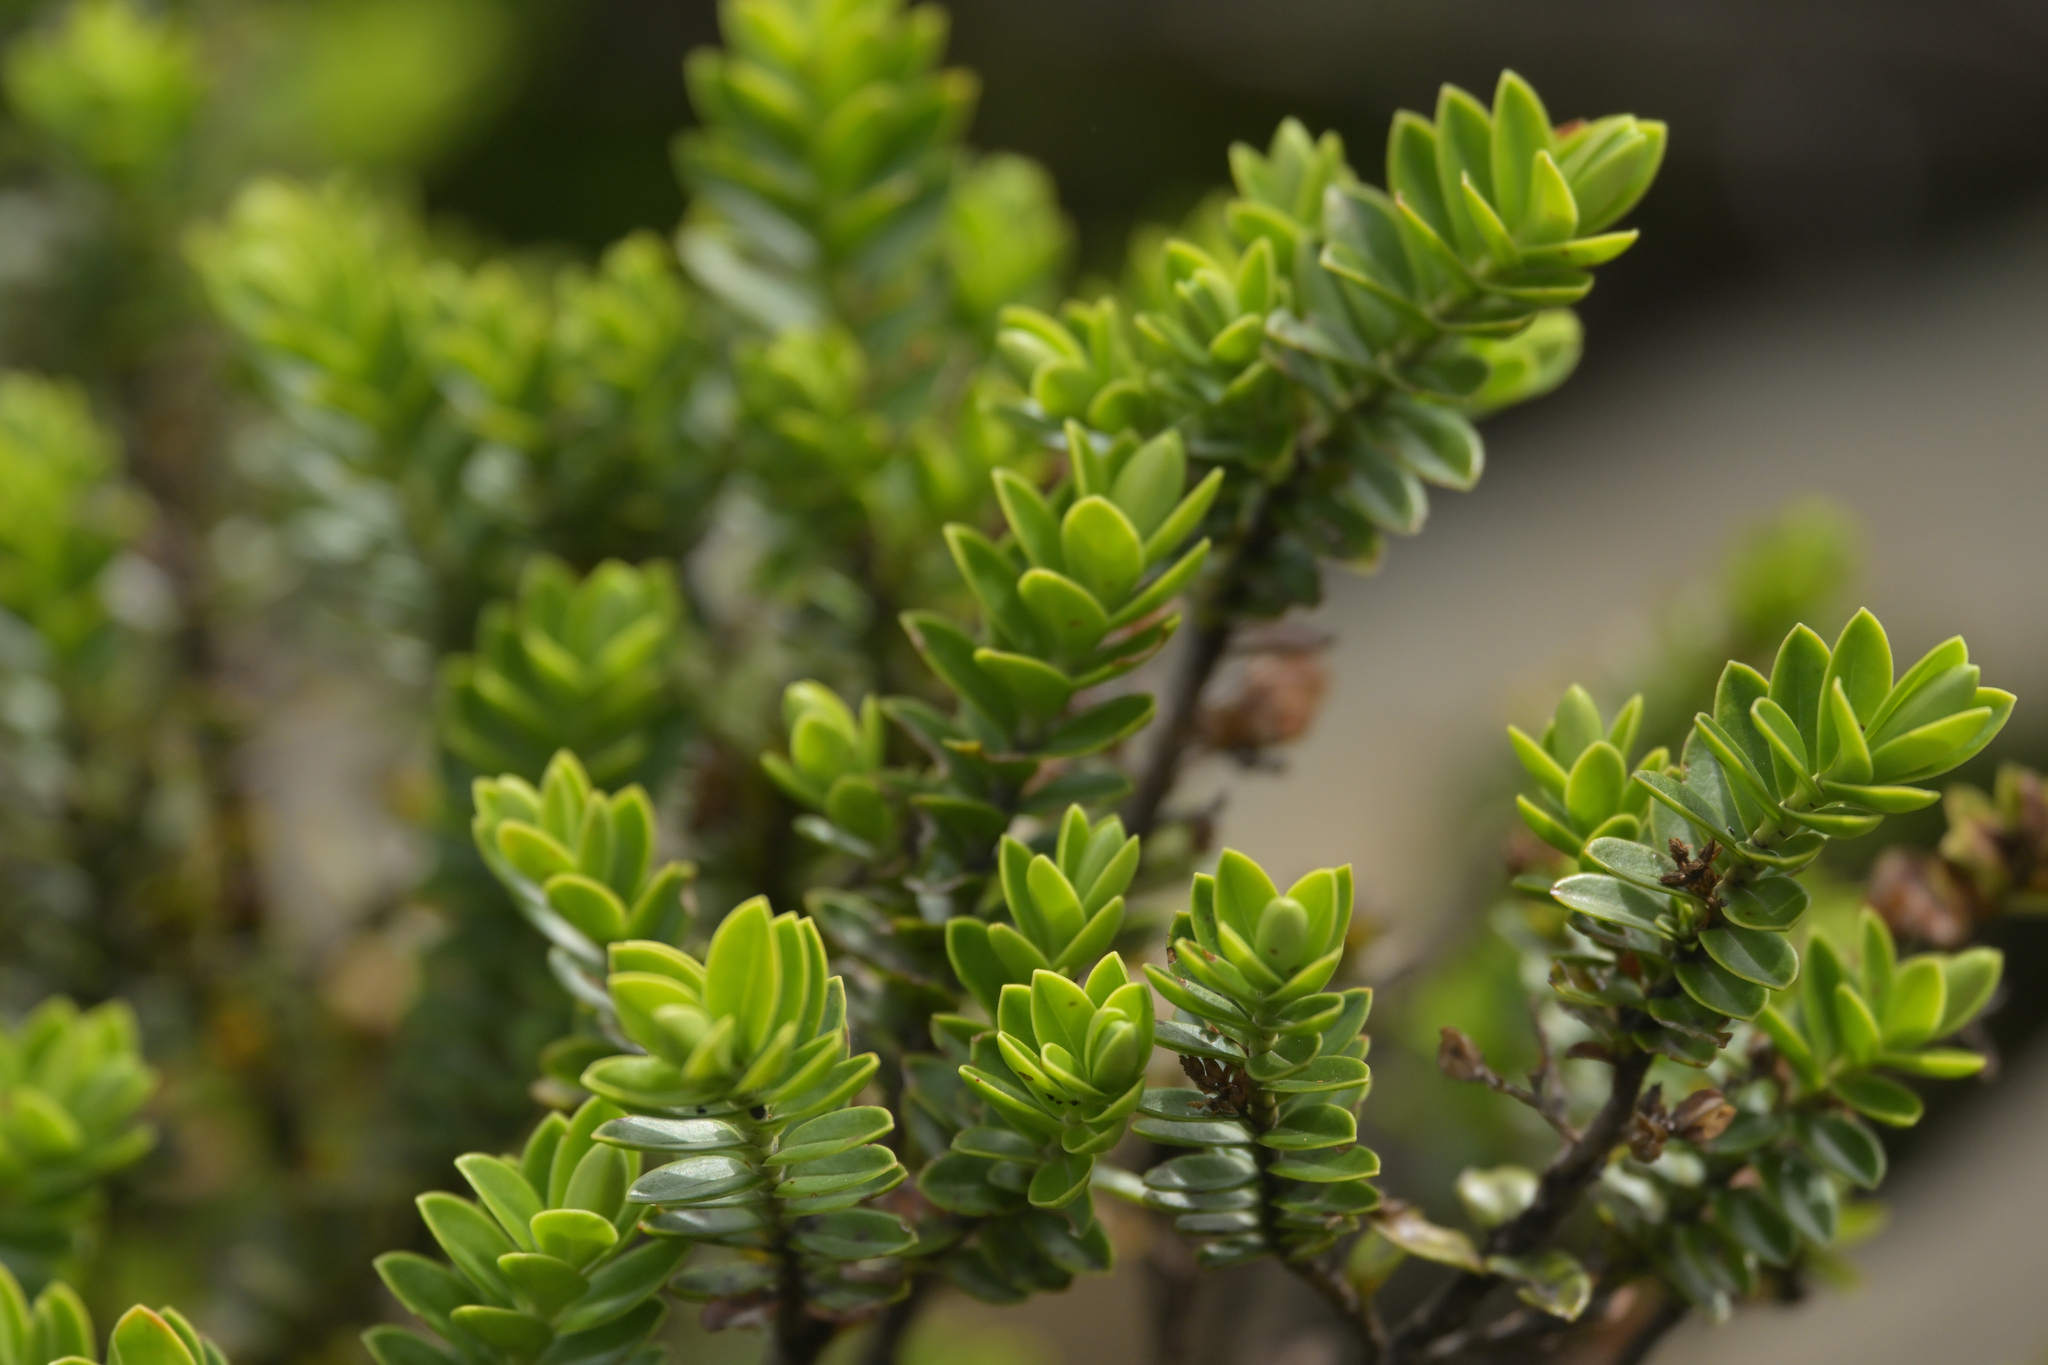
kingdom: Plantae
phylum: Tracheophyta
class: Magnoliopsida
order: Lamiales
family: Plantaginaceae
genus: Veronica
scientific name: Veronica canterburiensis
